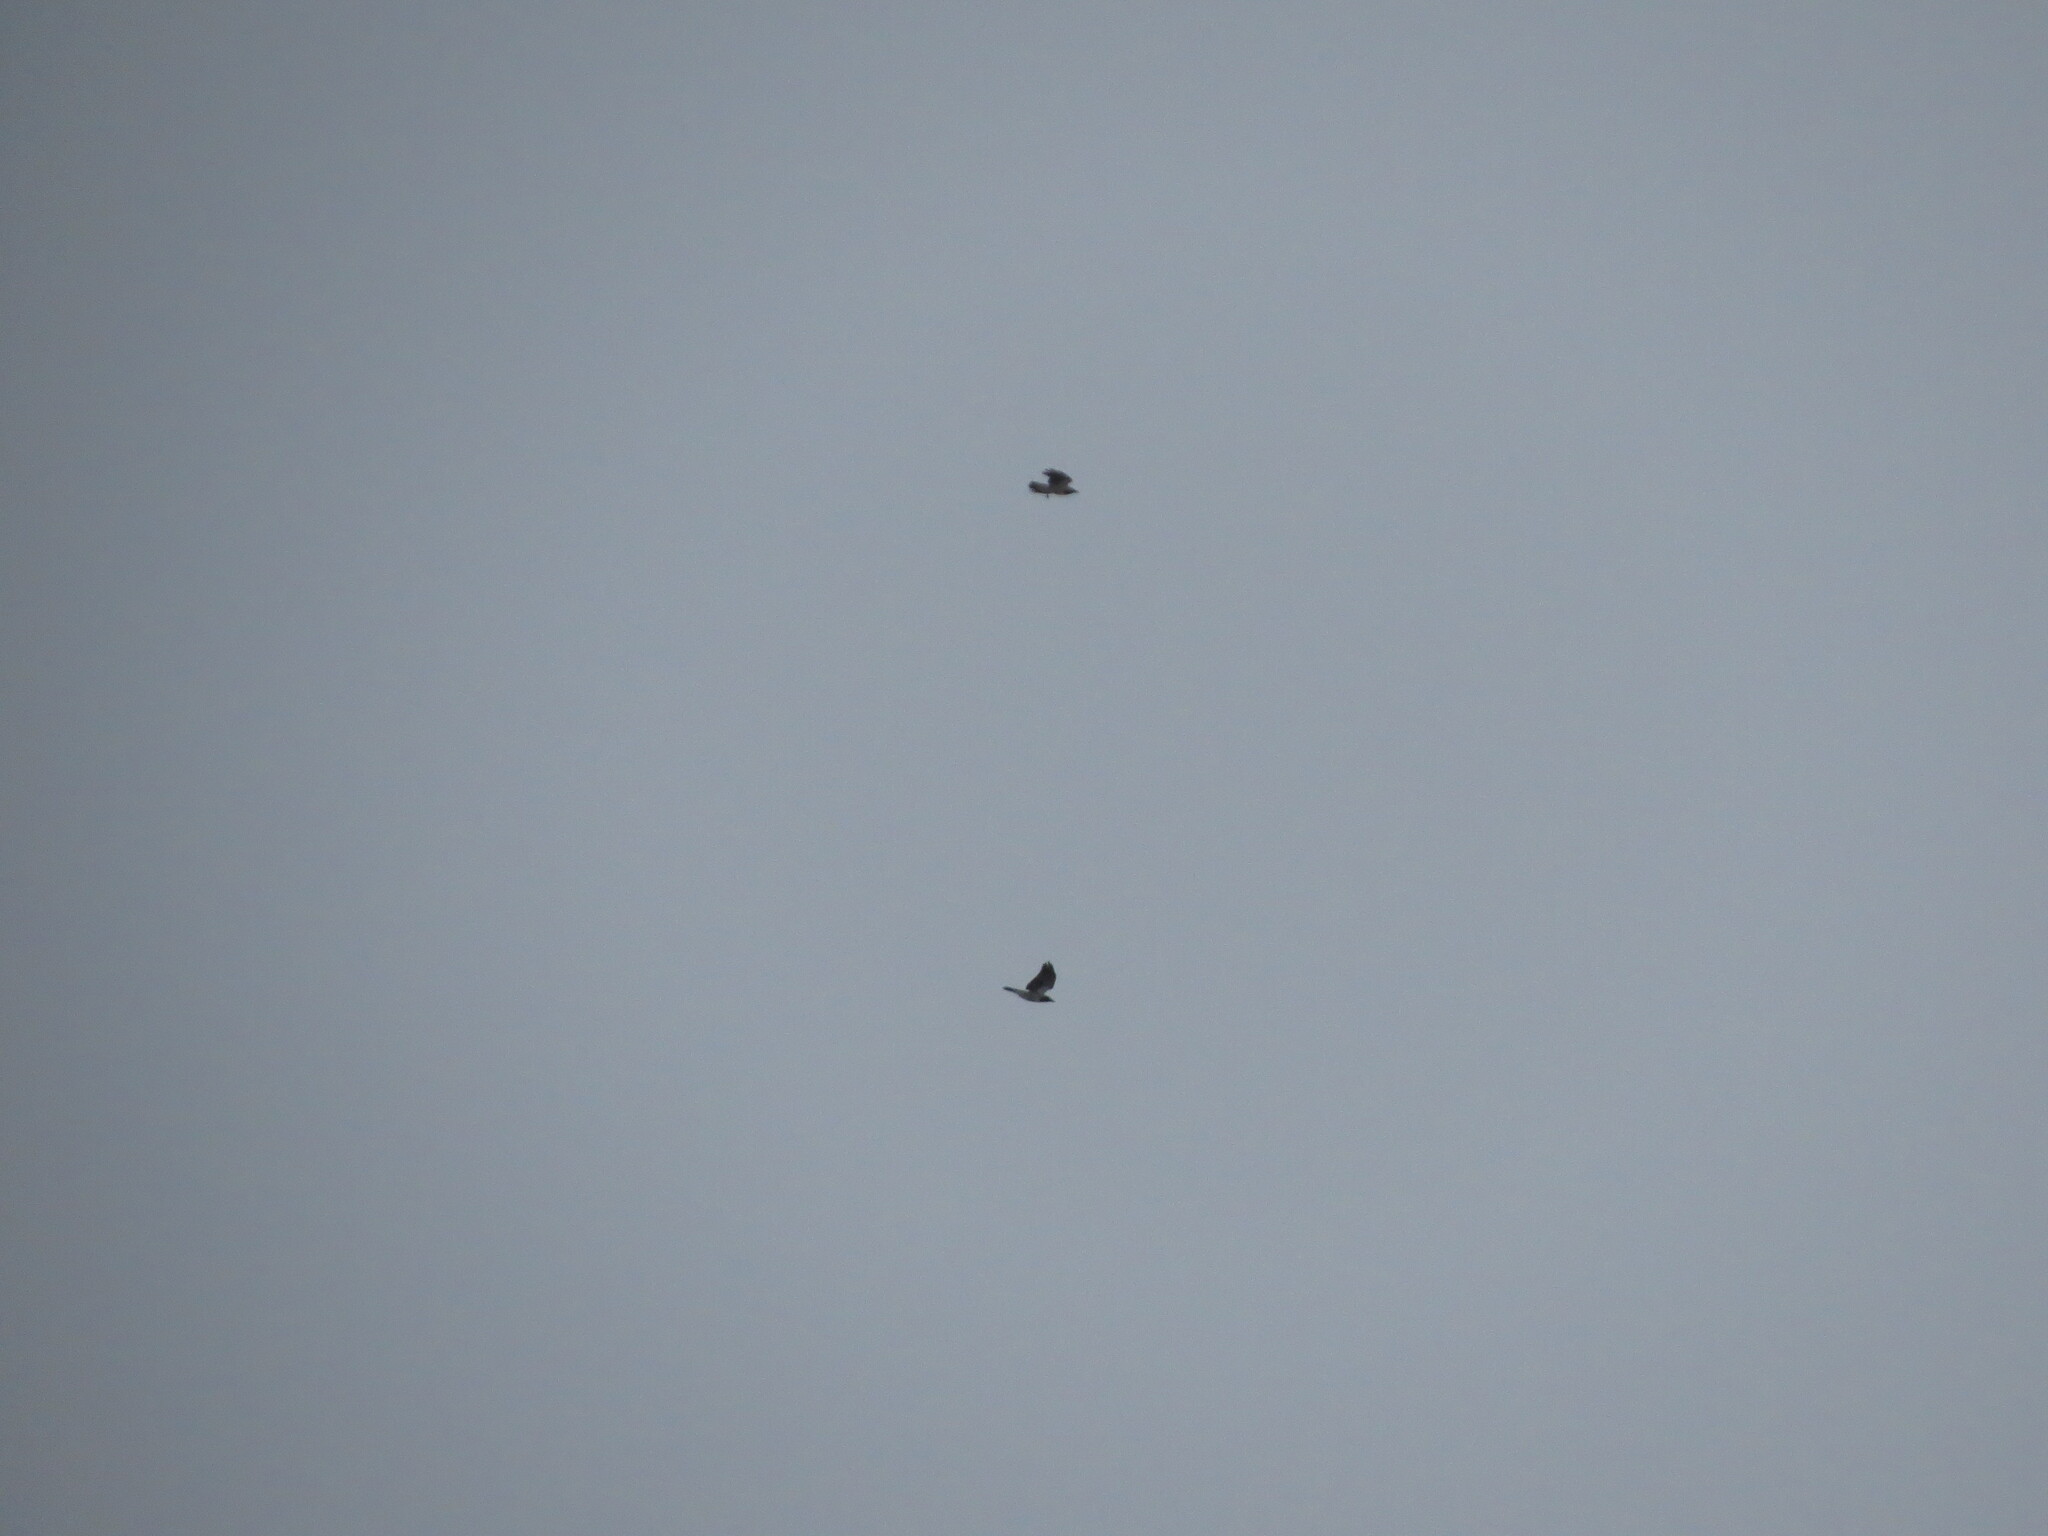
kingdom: Animalia
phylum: Chordata
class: Aves
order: Passeriformes
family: Corvidae
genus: Corvus
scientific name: Corvus cornix
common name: Hooded crow
